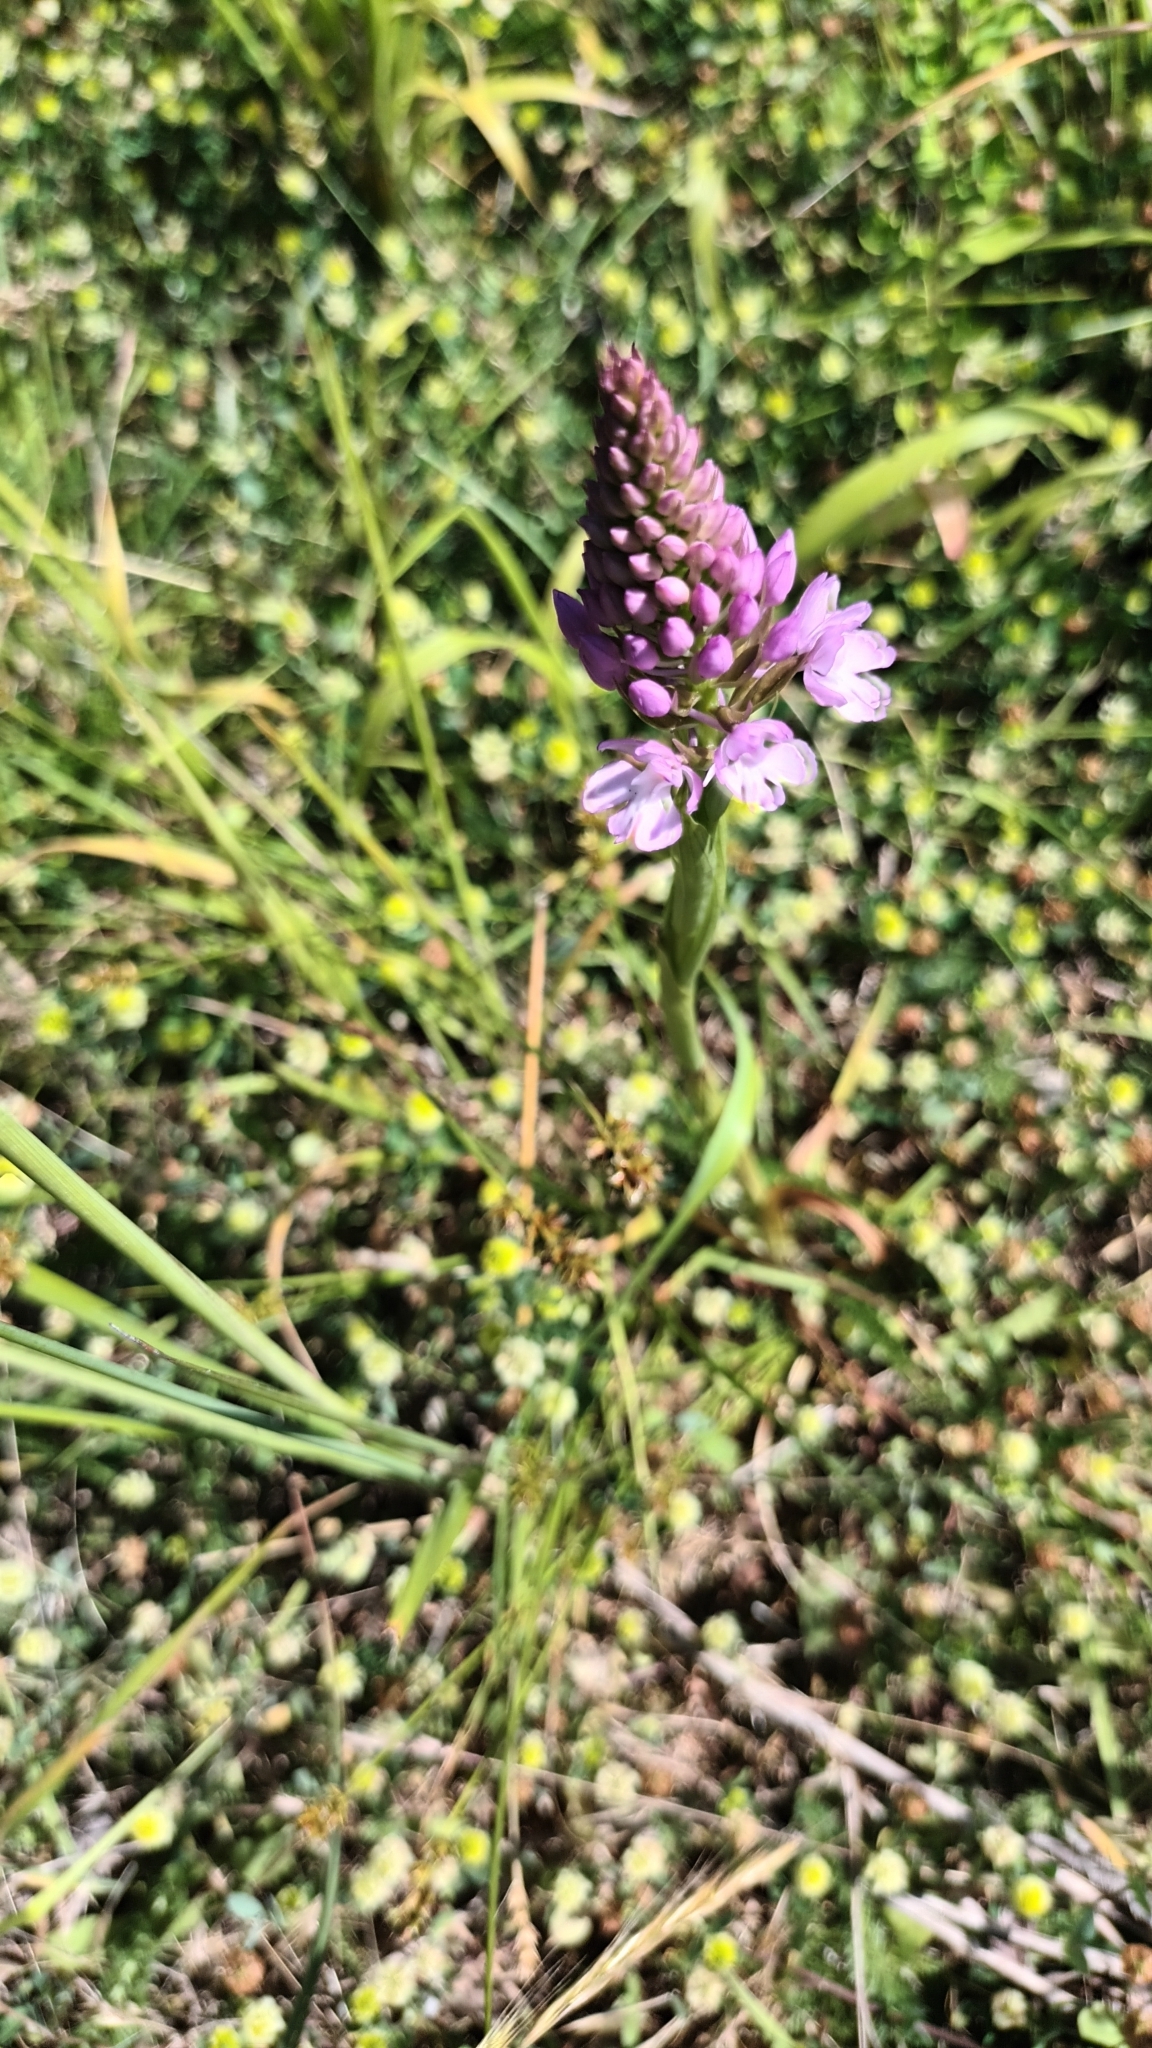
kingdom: Plantae
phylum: Tracheophyta
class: Liliopsida
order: Asparagales
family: Orchidaceae
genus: Anacamptis
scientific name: Anacamptis pyramidalis
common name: Pyramidal orchid
